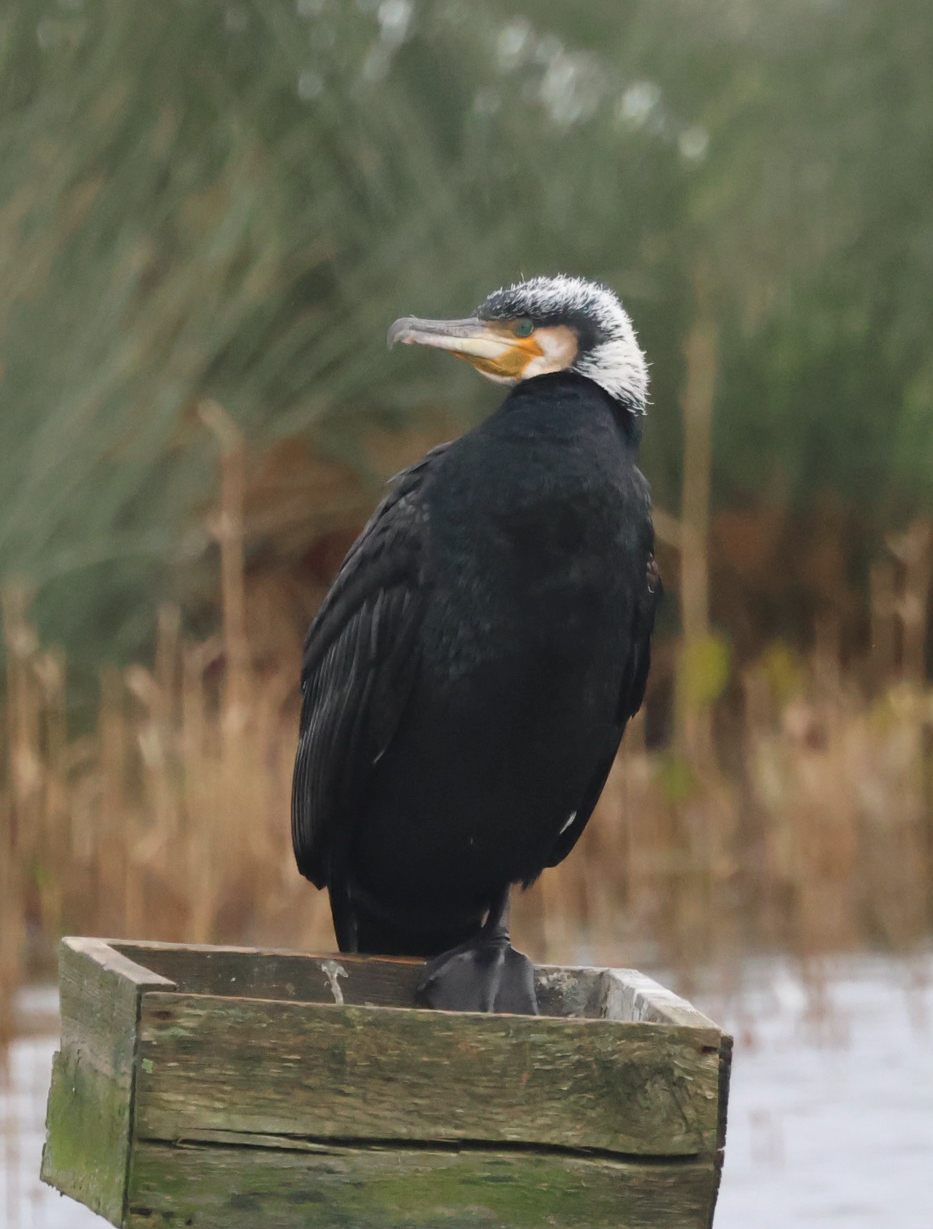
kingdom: Animalia
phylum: Chordata
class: Aves
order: Suliformes
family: Phalacrocoracidae
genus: Phalacrocorax
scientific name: Phalacrocorax carbo
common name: Great cormorant
